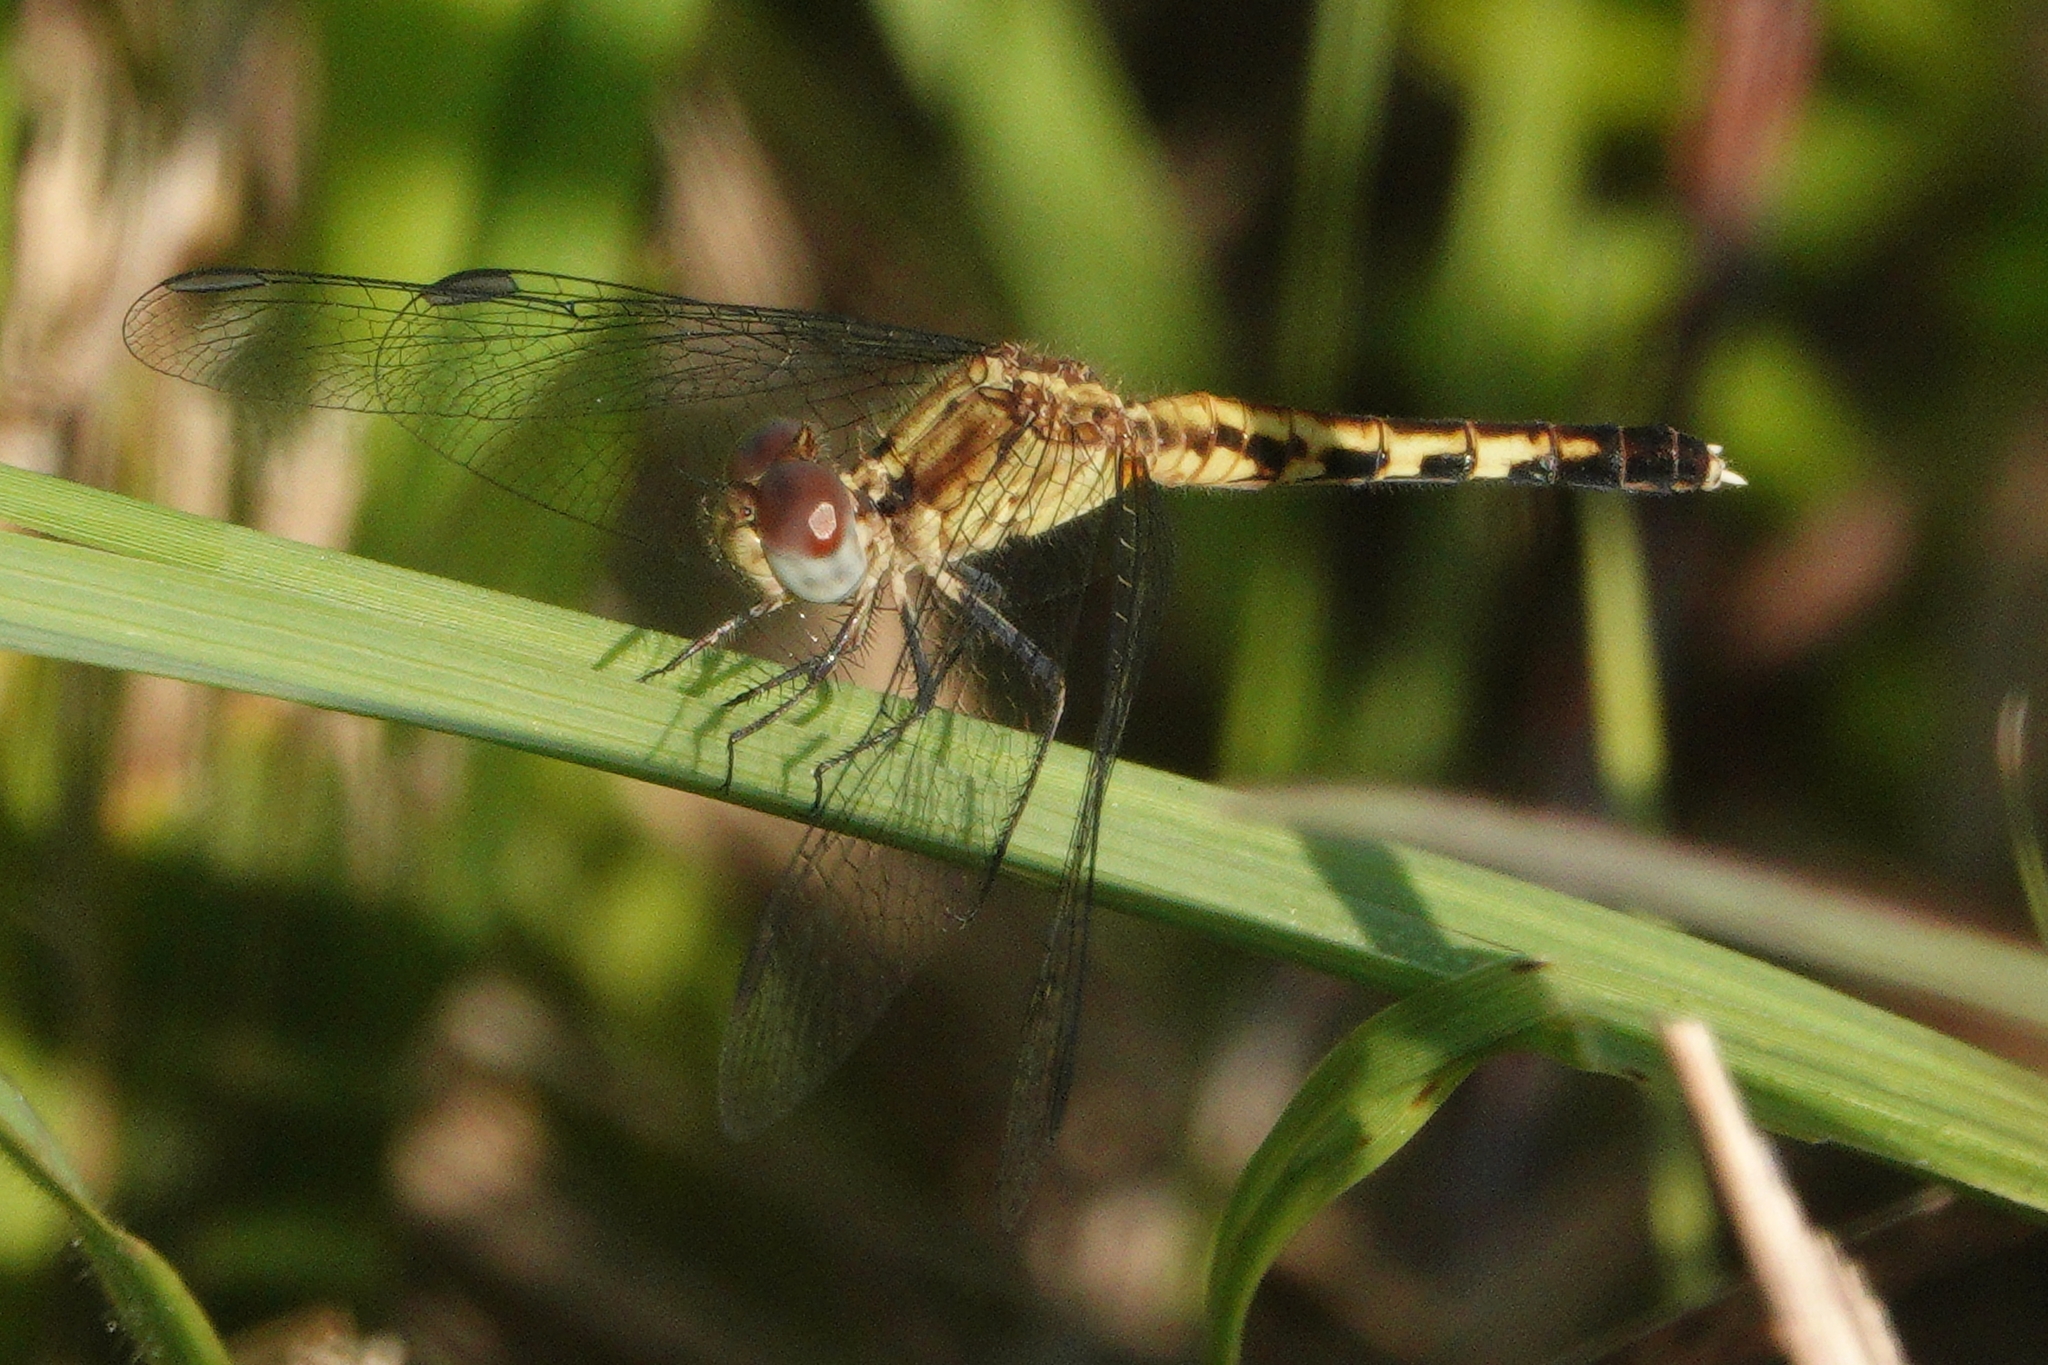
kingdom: Animalia
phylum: Arthropoda
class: Insecta
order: Odonata
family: Libellulidae
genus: Erythrodiplax
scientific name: Erythrodiplax minuscula
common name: Little blue dragonlet
